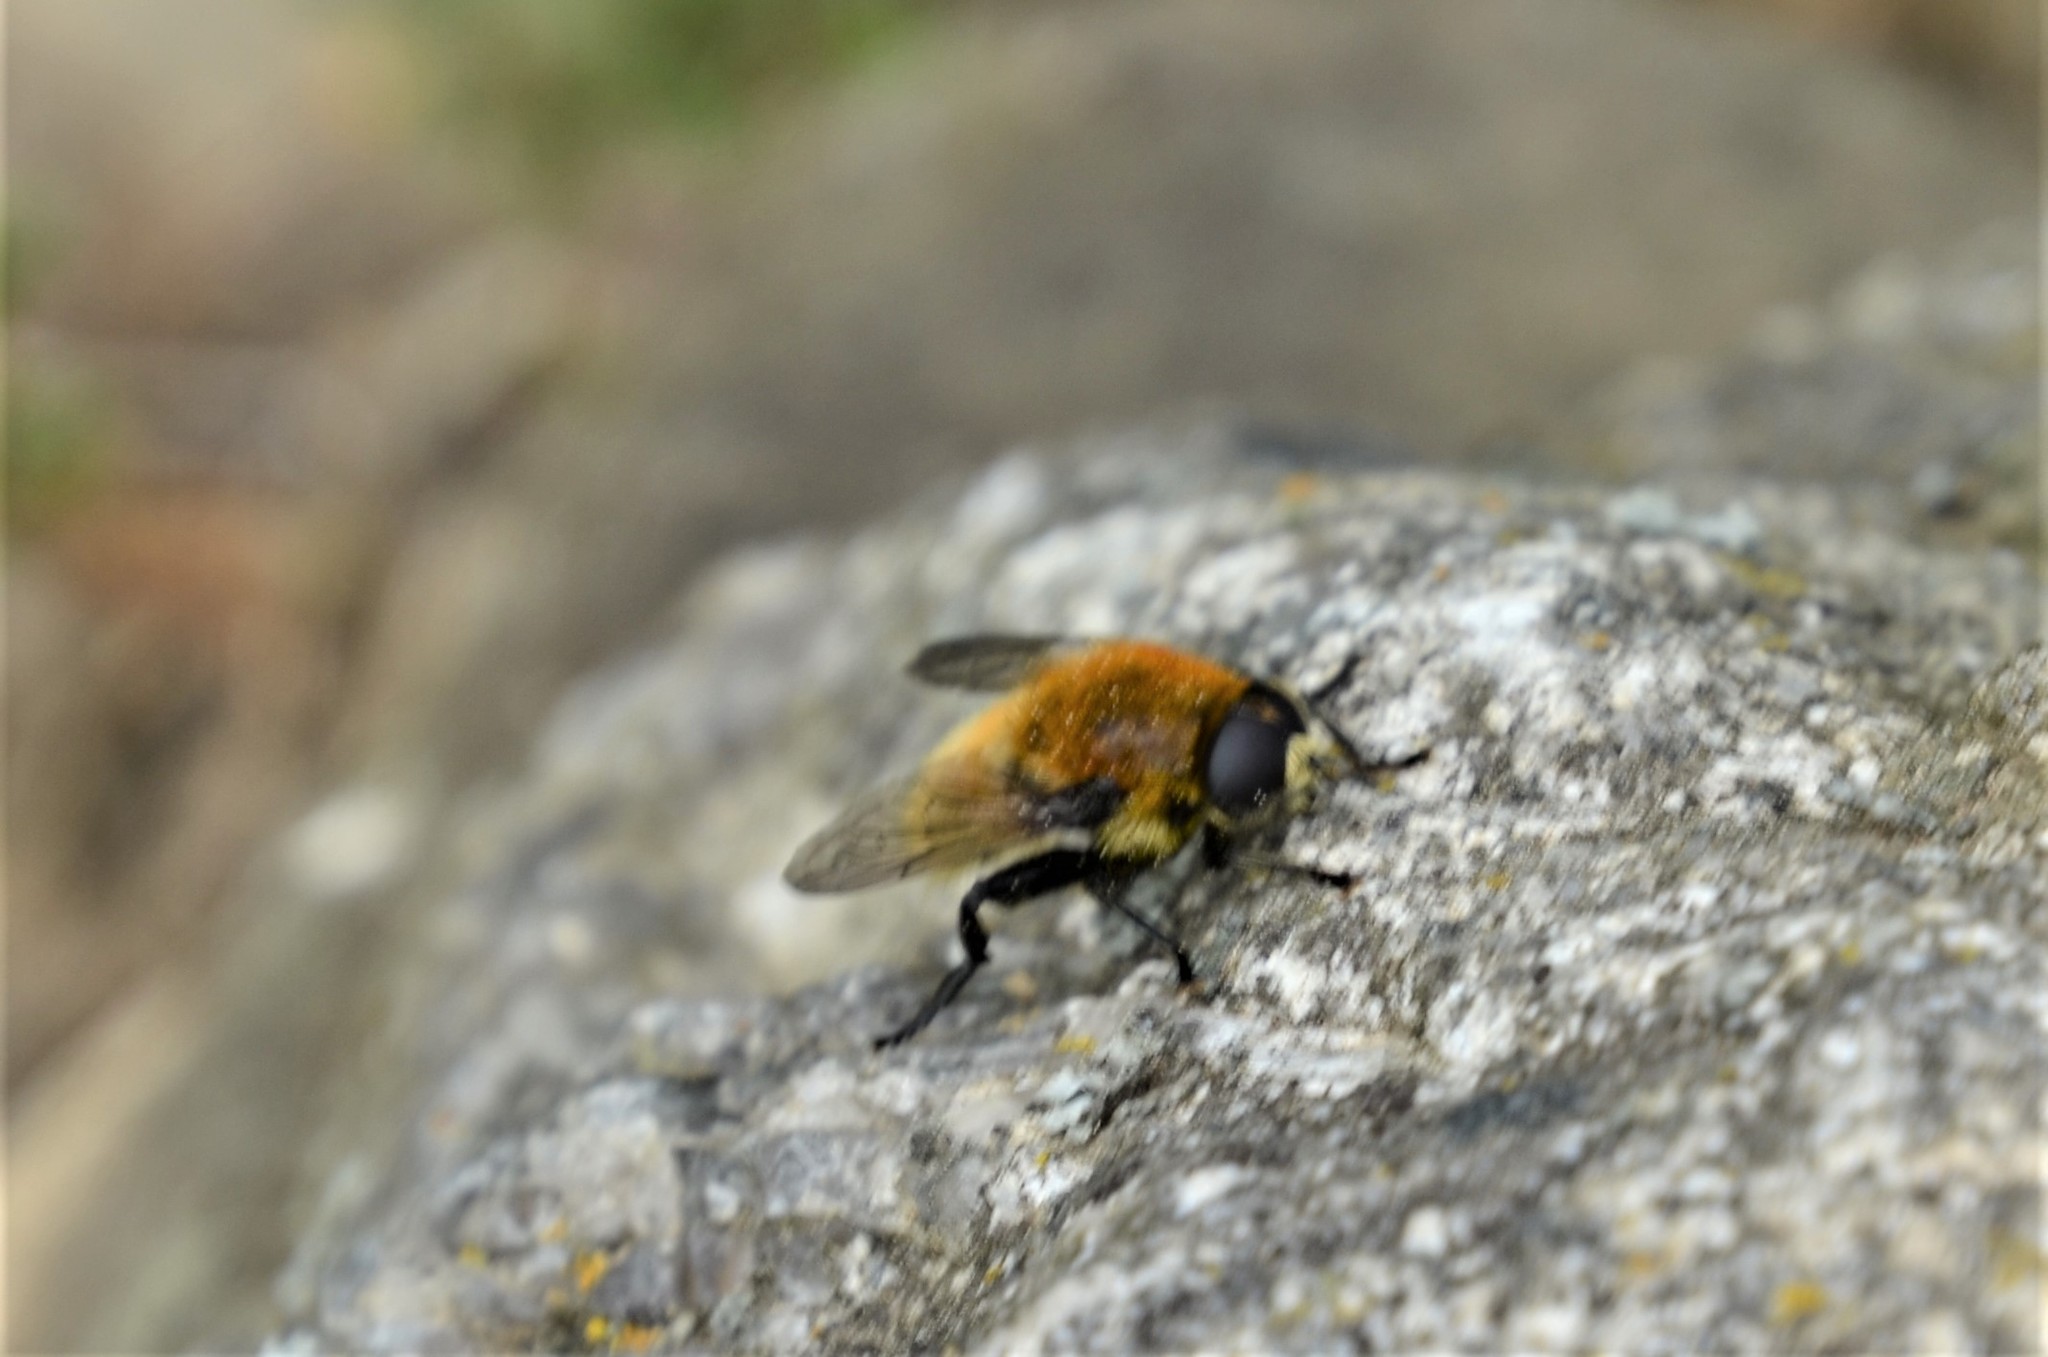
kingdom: Animalia
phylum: Arthropoda
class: Insecta
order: Diptera
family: Syrphidae
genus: Merodon
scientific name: Merodon equestris
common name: Greater bulb-fly
